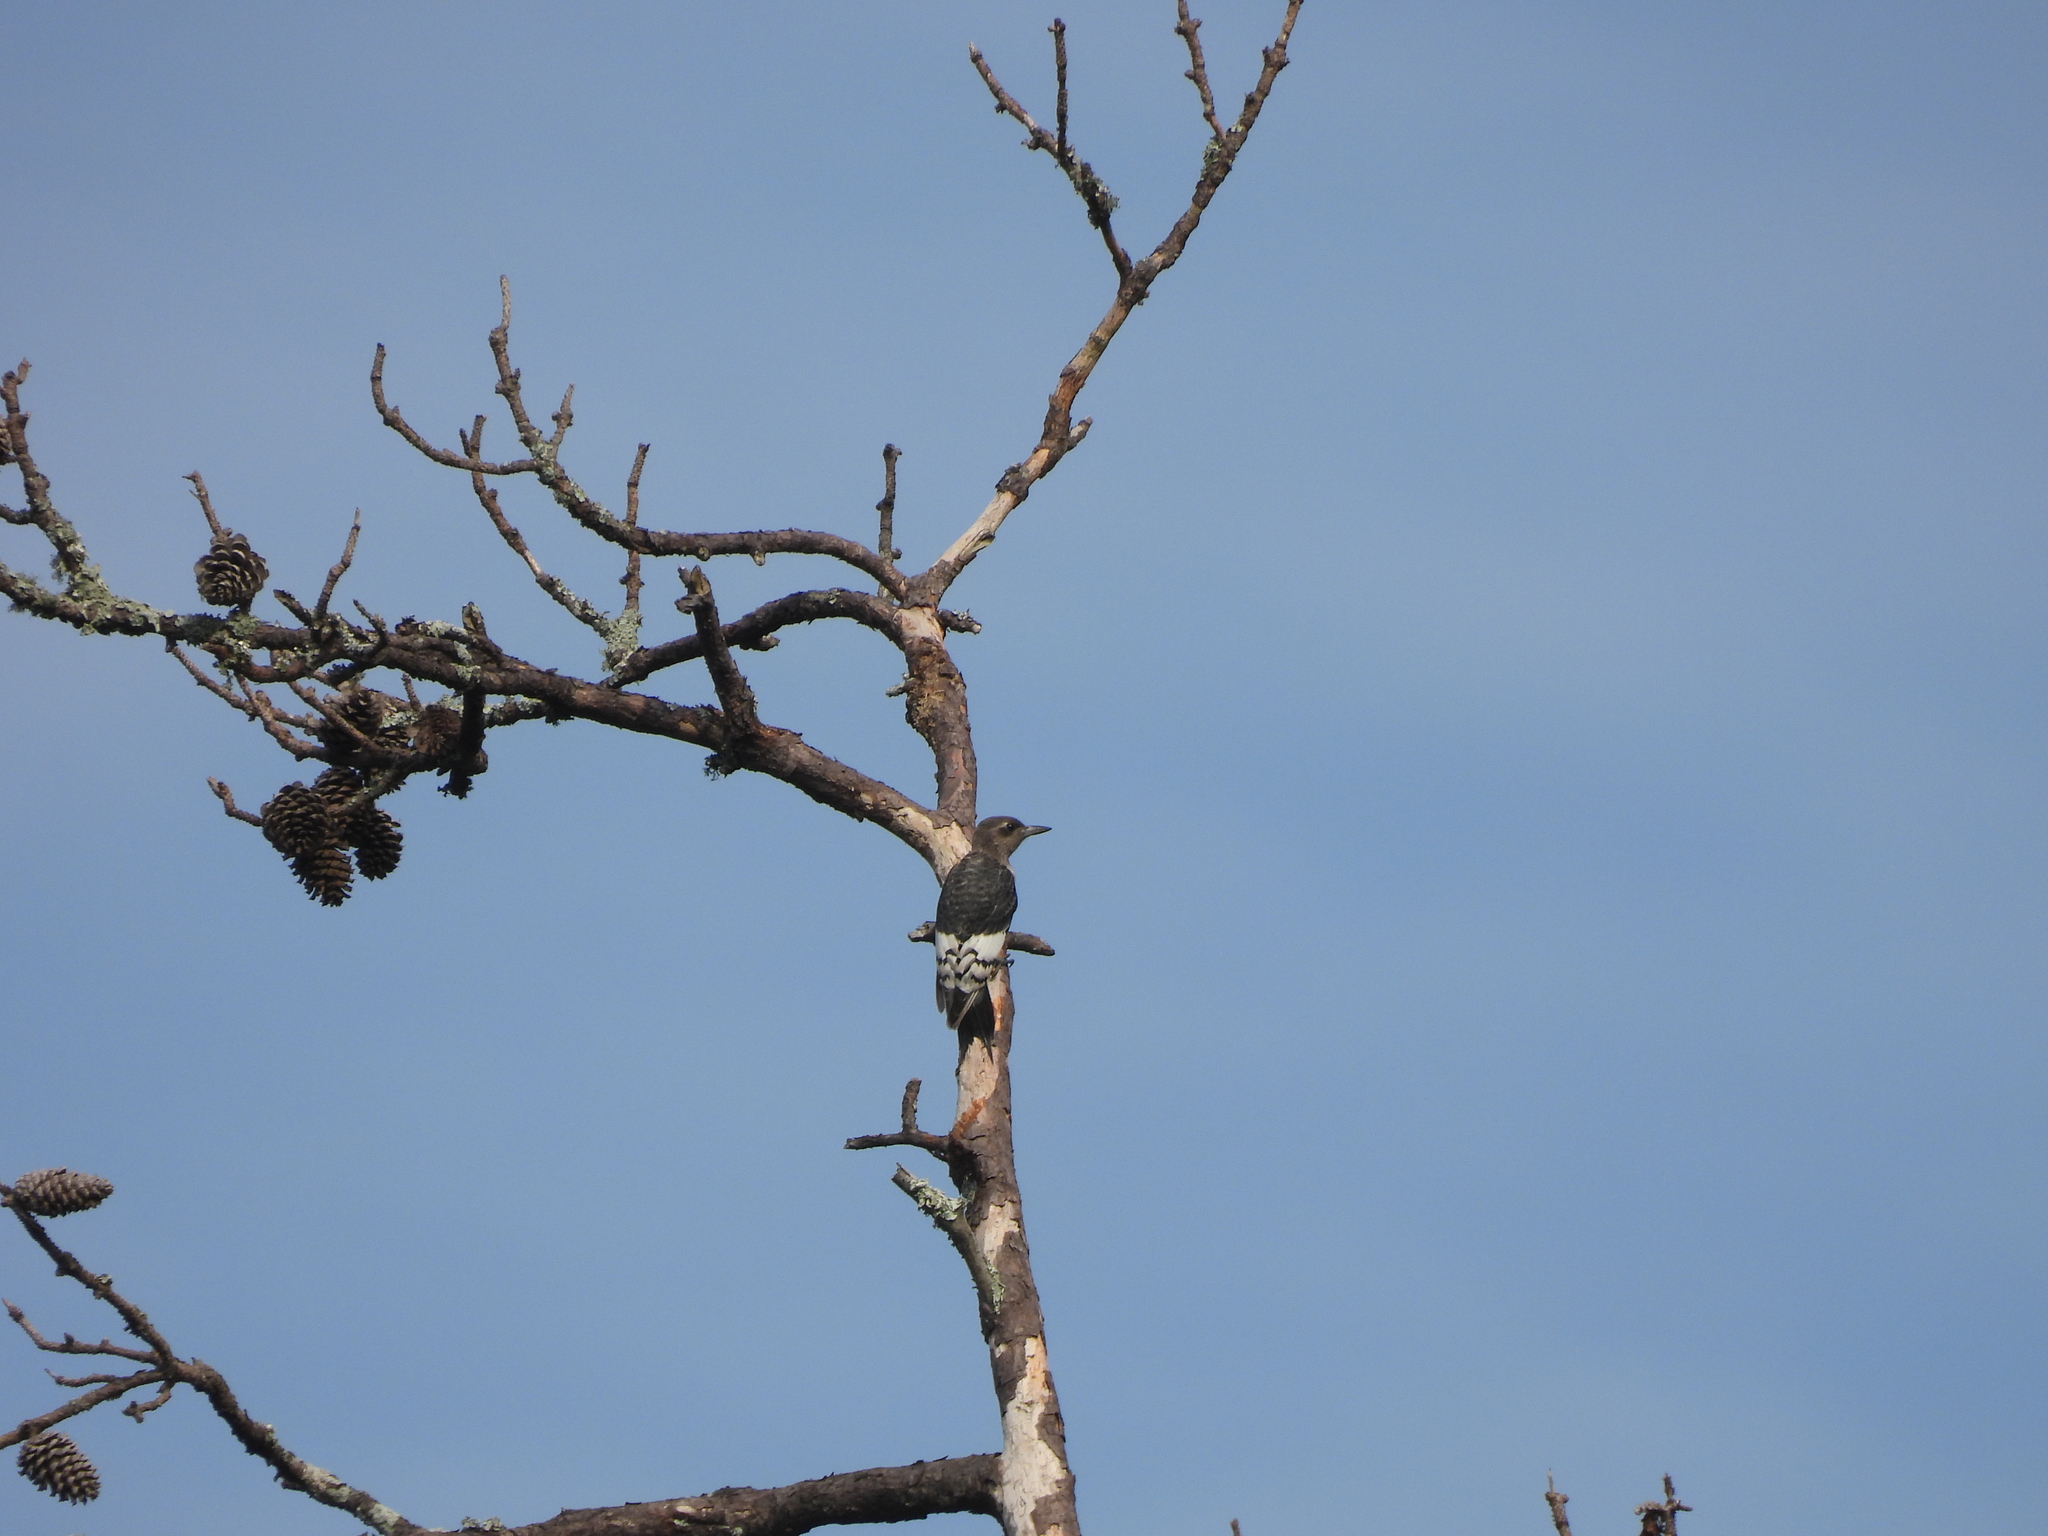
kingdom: Animalia
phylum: Chordata
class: Aves
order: Piciformes
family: Picidae
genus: Melanerpes
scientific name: Melanerpes erythrocephalus
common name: Red-headed woodpecker
